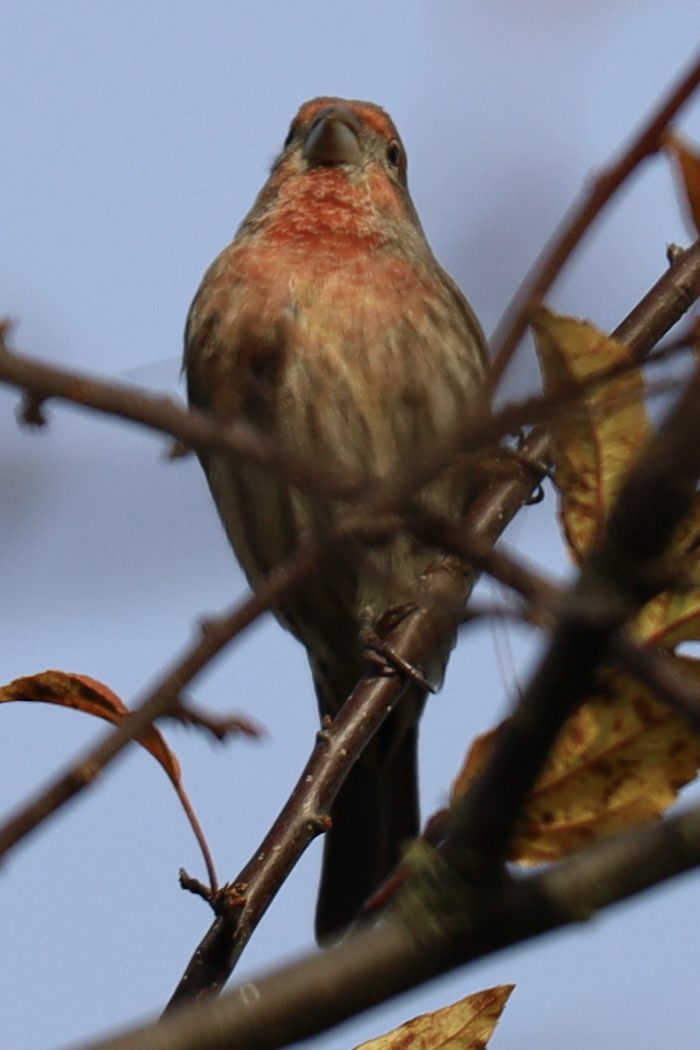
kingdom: Animalia
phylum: Chordata
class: Aves
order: Passeriformes
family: Fringillidae
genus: Haemorhous
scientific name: Haemorhous mexicanus
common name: House finch
